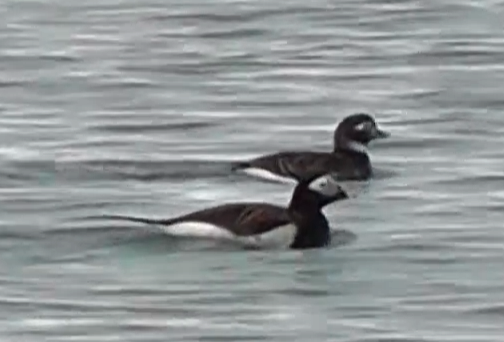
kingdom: Animalia
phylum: Chordata
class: Aves
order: Anseriformes
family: Anatidae
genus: Clangula
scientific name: Clangula hyemalis
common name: Long-tailed duck
